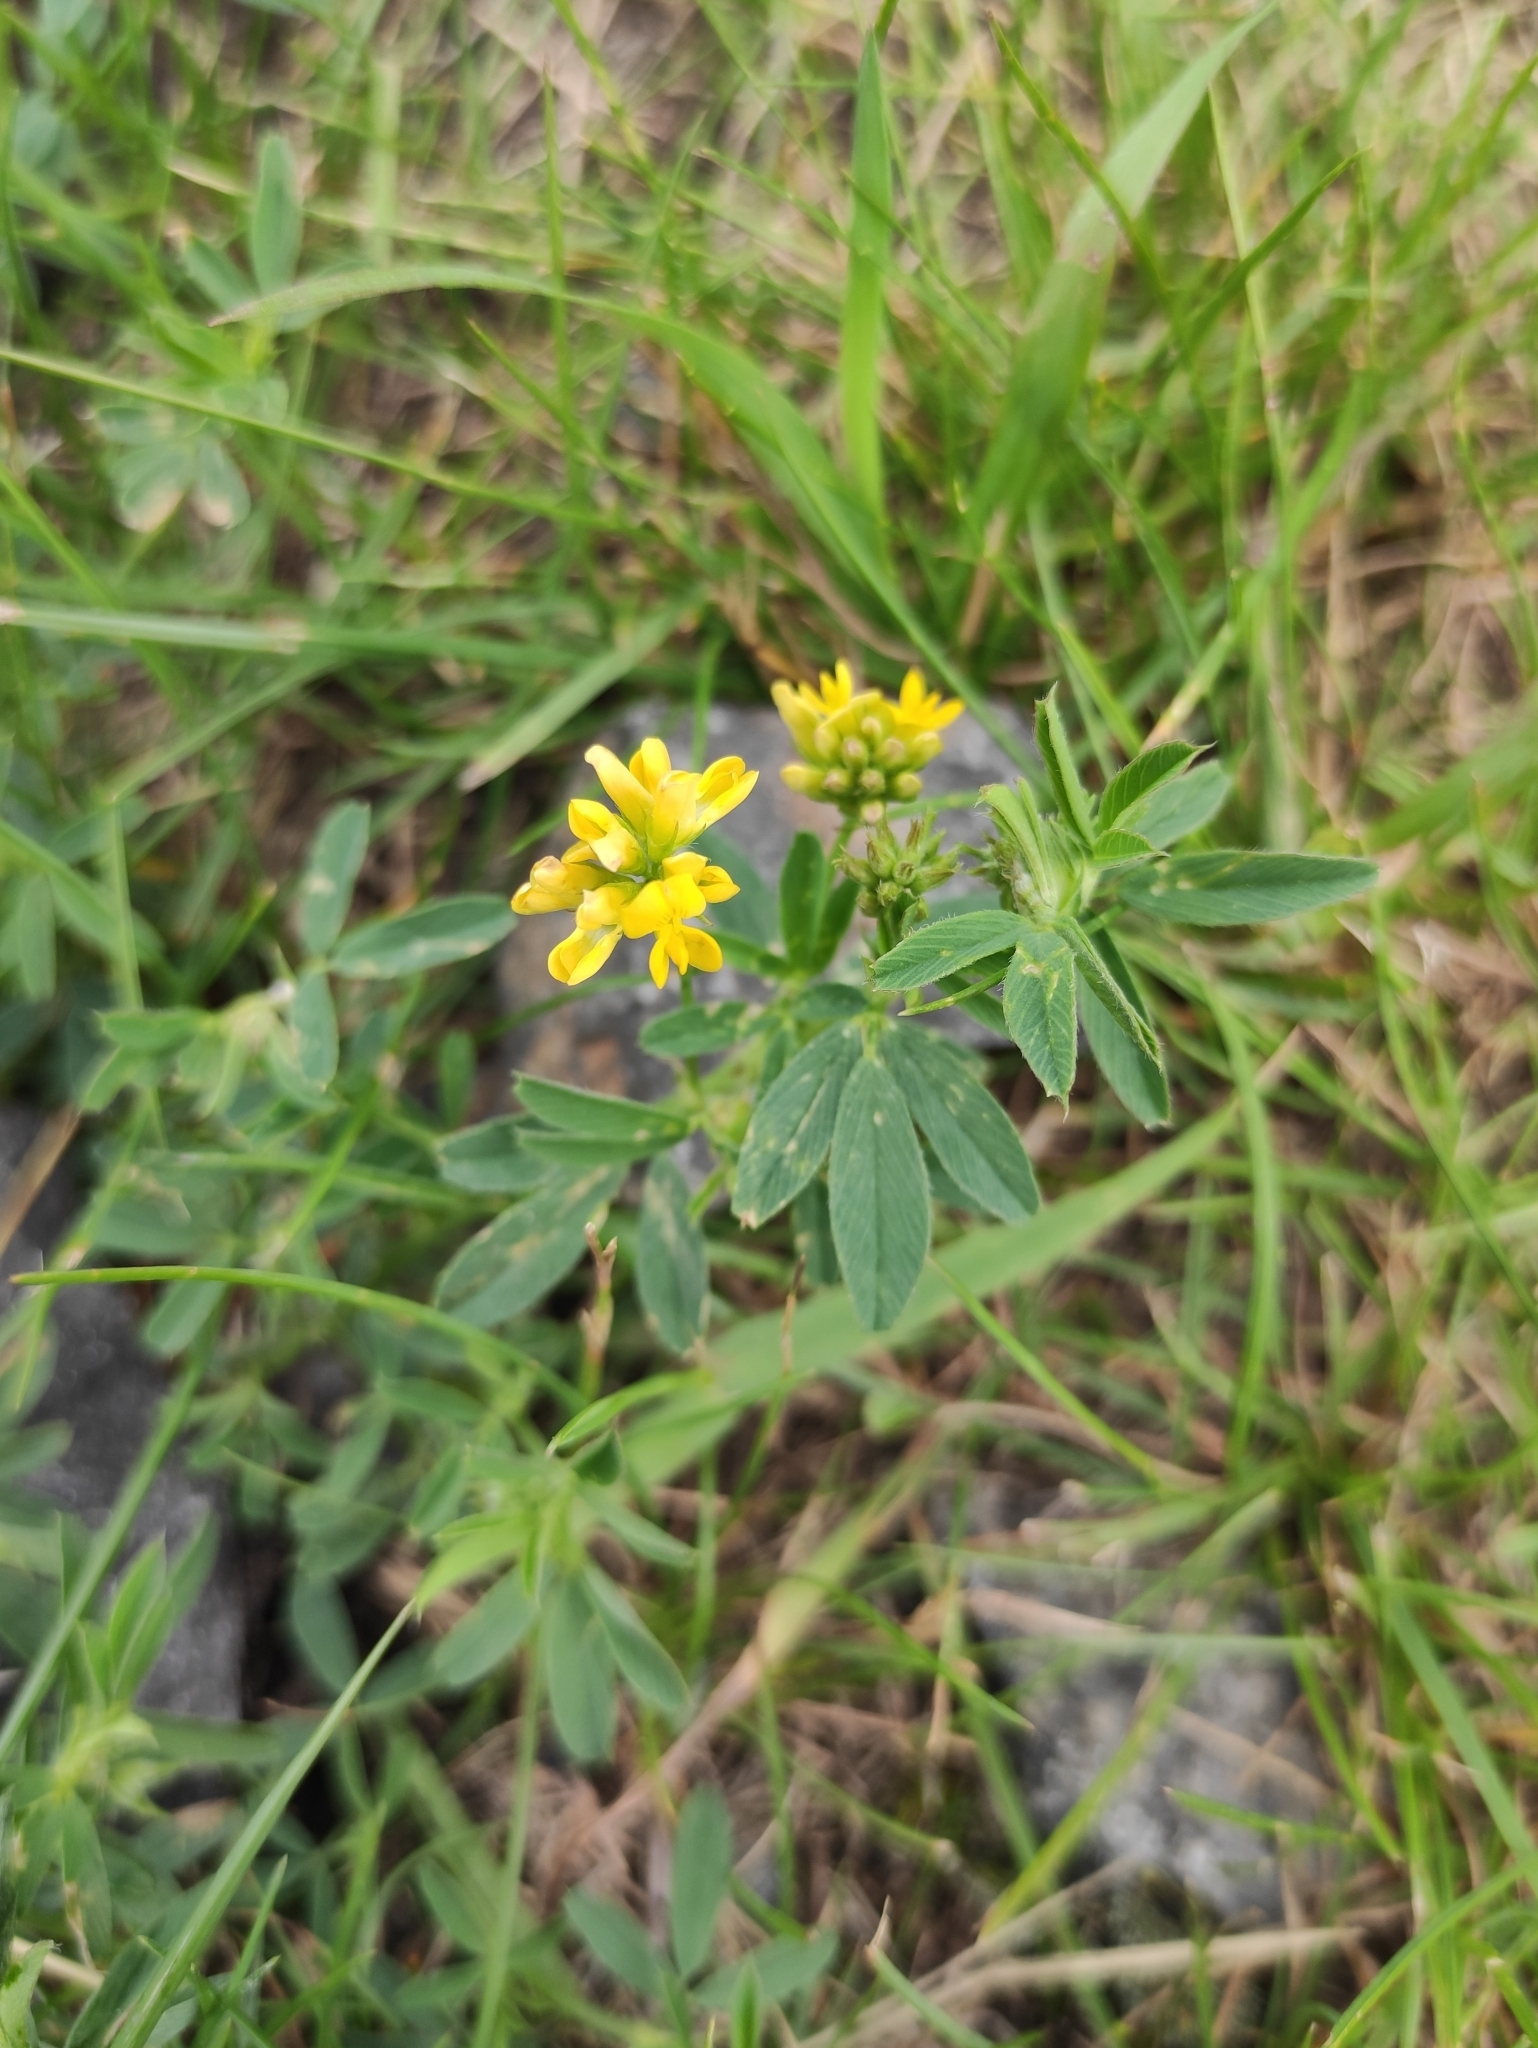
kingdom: Plantae
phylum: Tracheophyta
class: Magnoliopsida
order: Fabales
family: Fabaceae
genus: Medicago
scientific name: Medicago falcata
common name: Sickle medick
